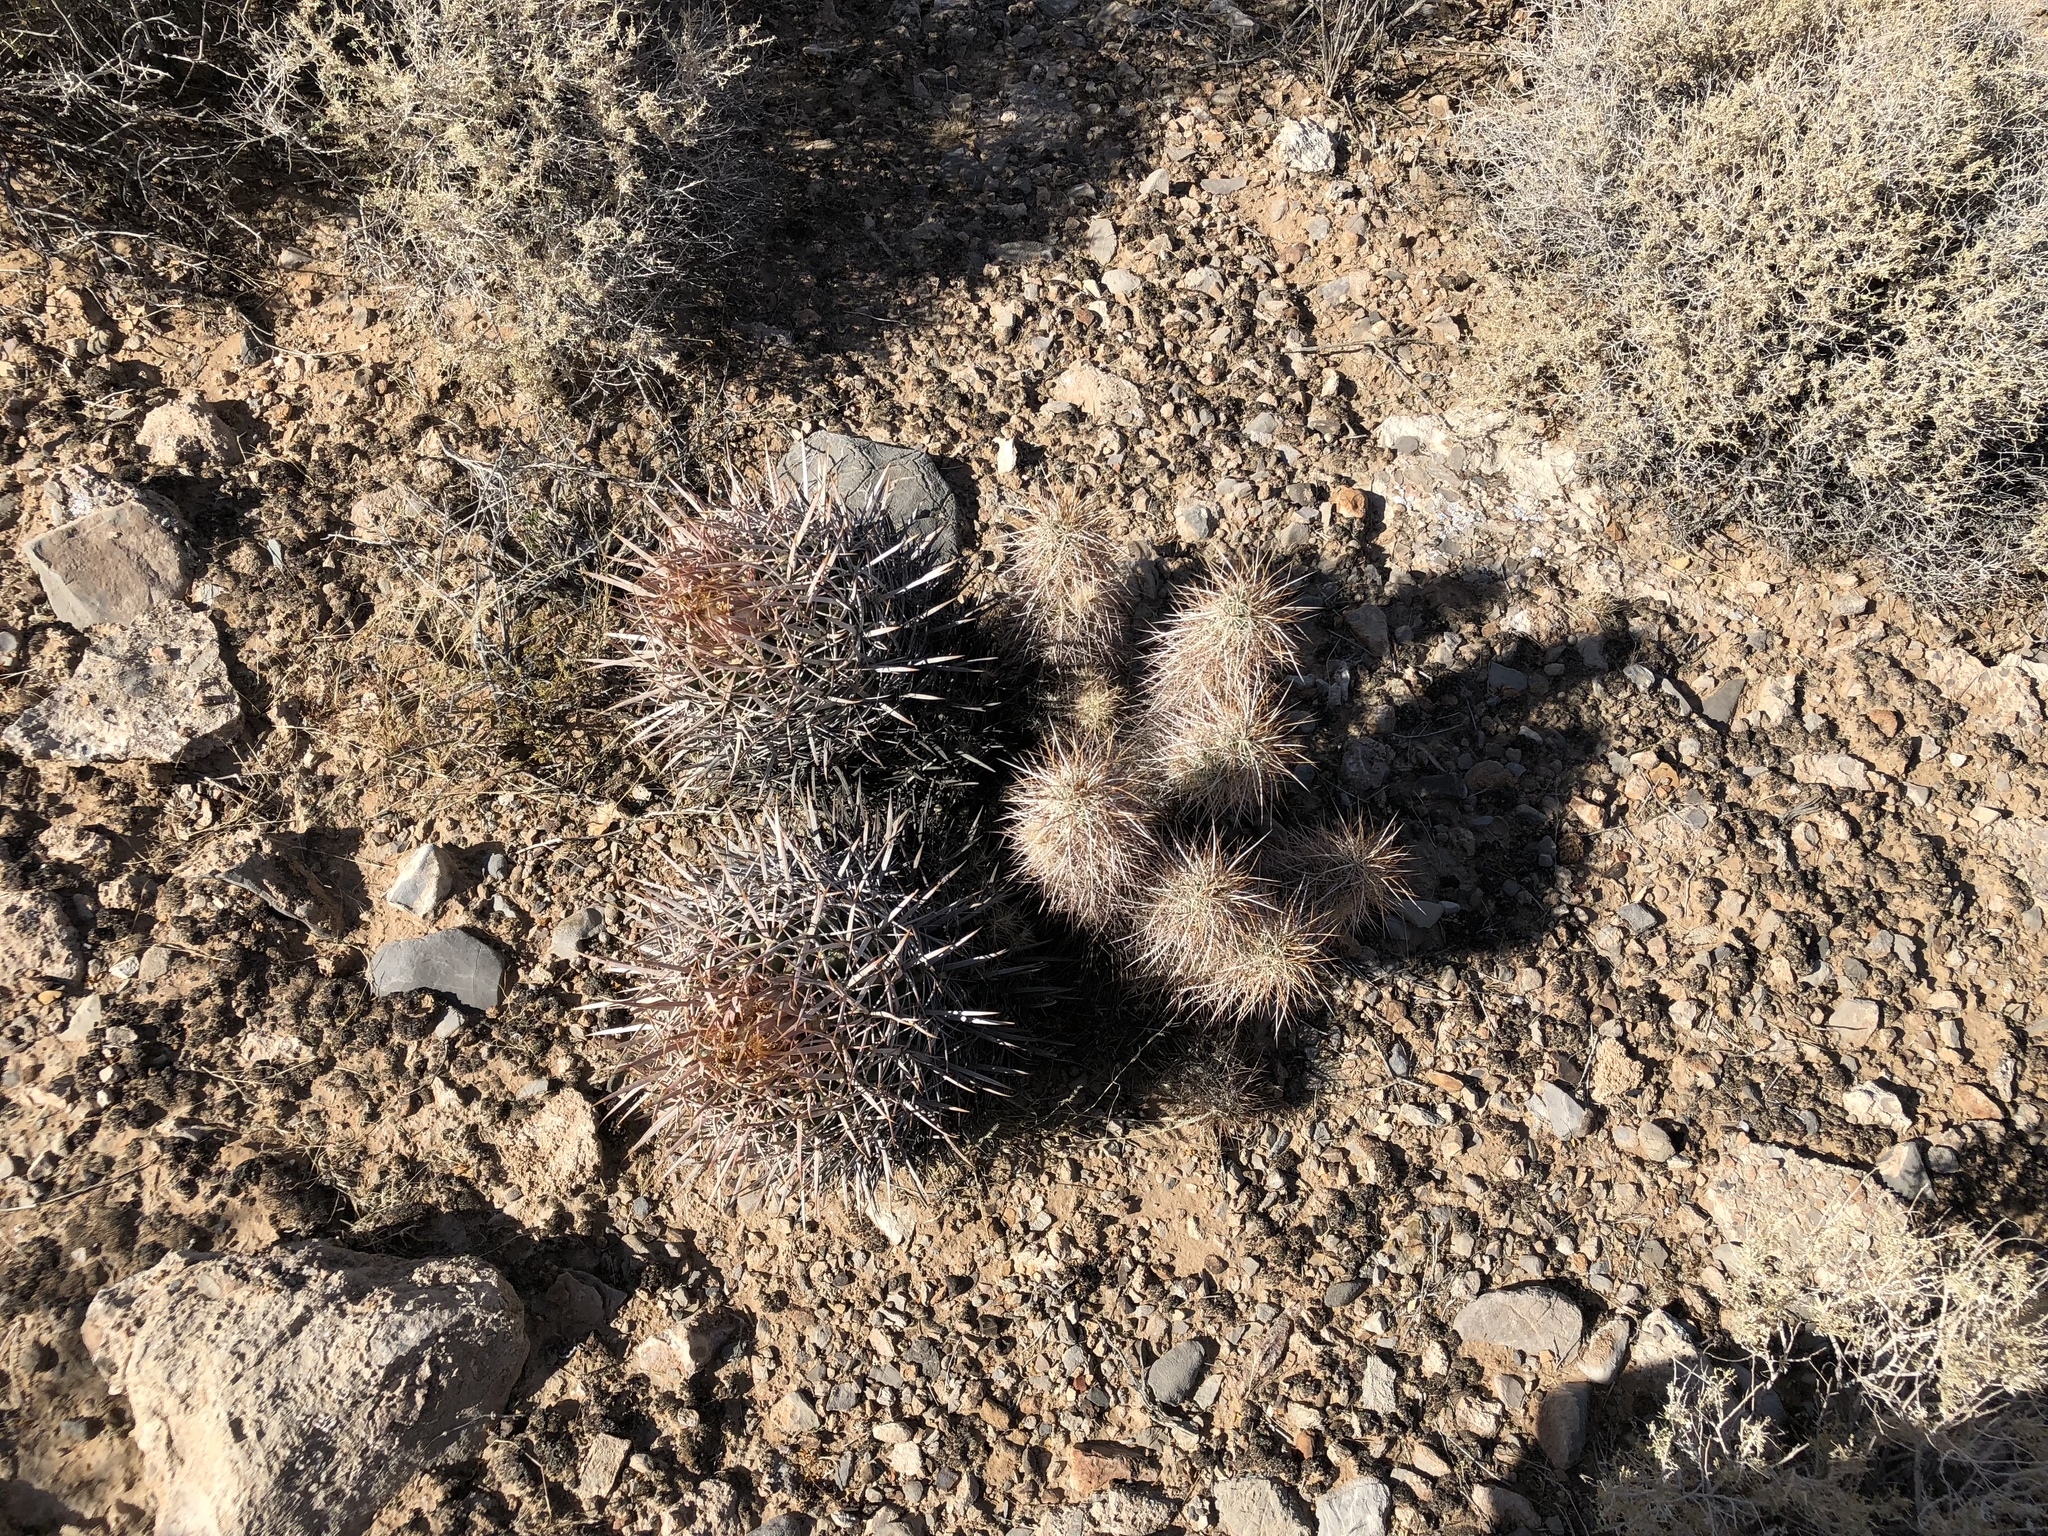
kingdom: Plantae
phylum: Tracheophyta
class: Magnoliopsida
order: Caryophyllales
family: Cactaceae
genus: Echinocereus
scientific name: Echinocereus engelmannii
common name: Engelmann's hedgehog cactus
